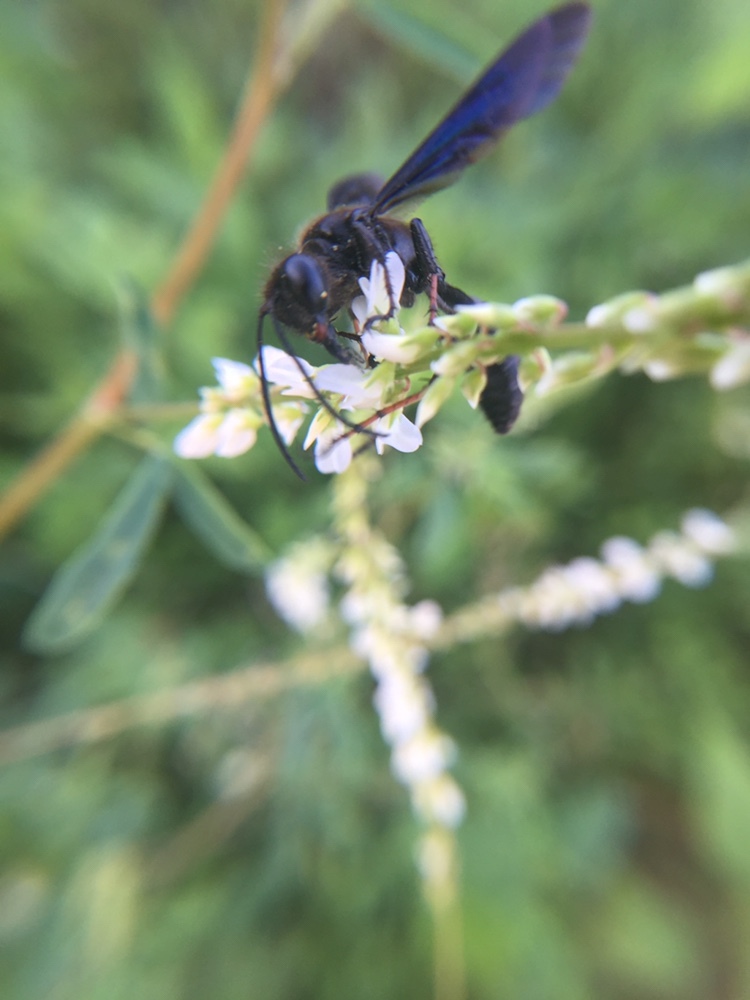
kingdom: Animalia
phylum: Arthropoda
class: Insecta
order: Hymenoptera
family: Sphecidae
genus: Isodontia
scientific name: Isodontia auripes
